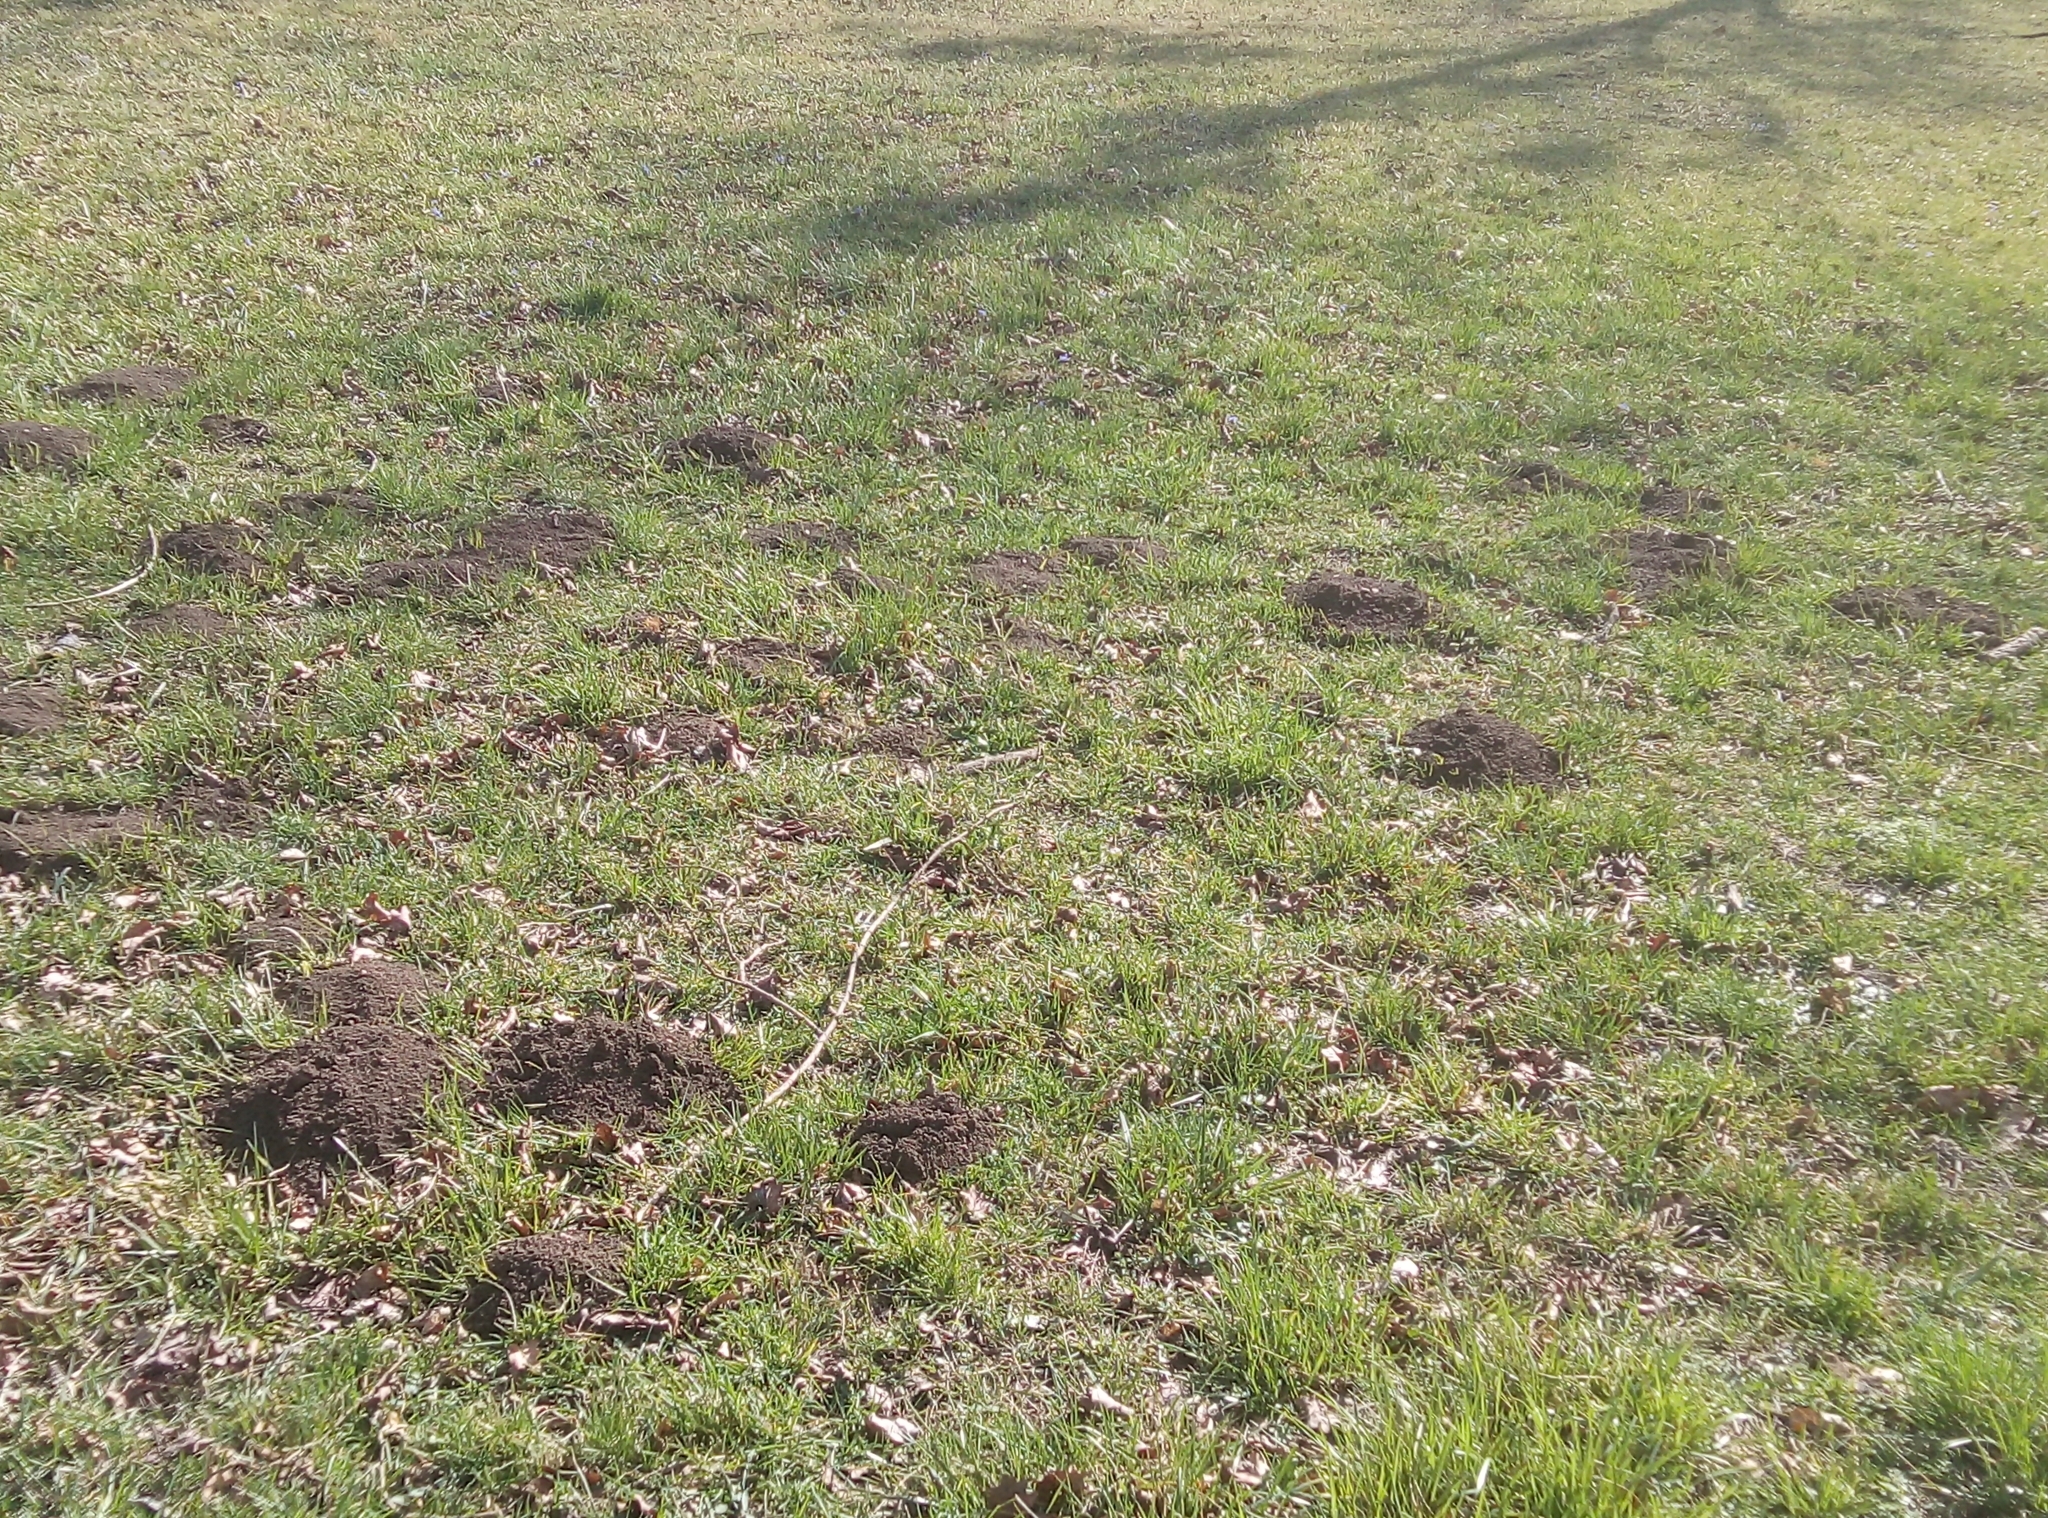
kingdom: Animalia
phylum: Chordata
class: Mammalia
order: Soricomorpha
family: Talpidae
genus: Talpa
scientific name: Talpa europaea
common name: European mole
